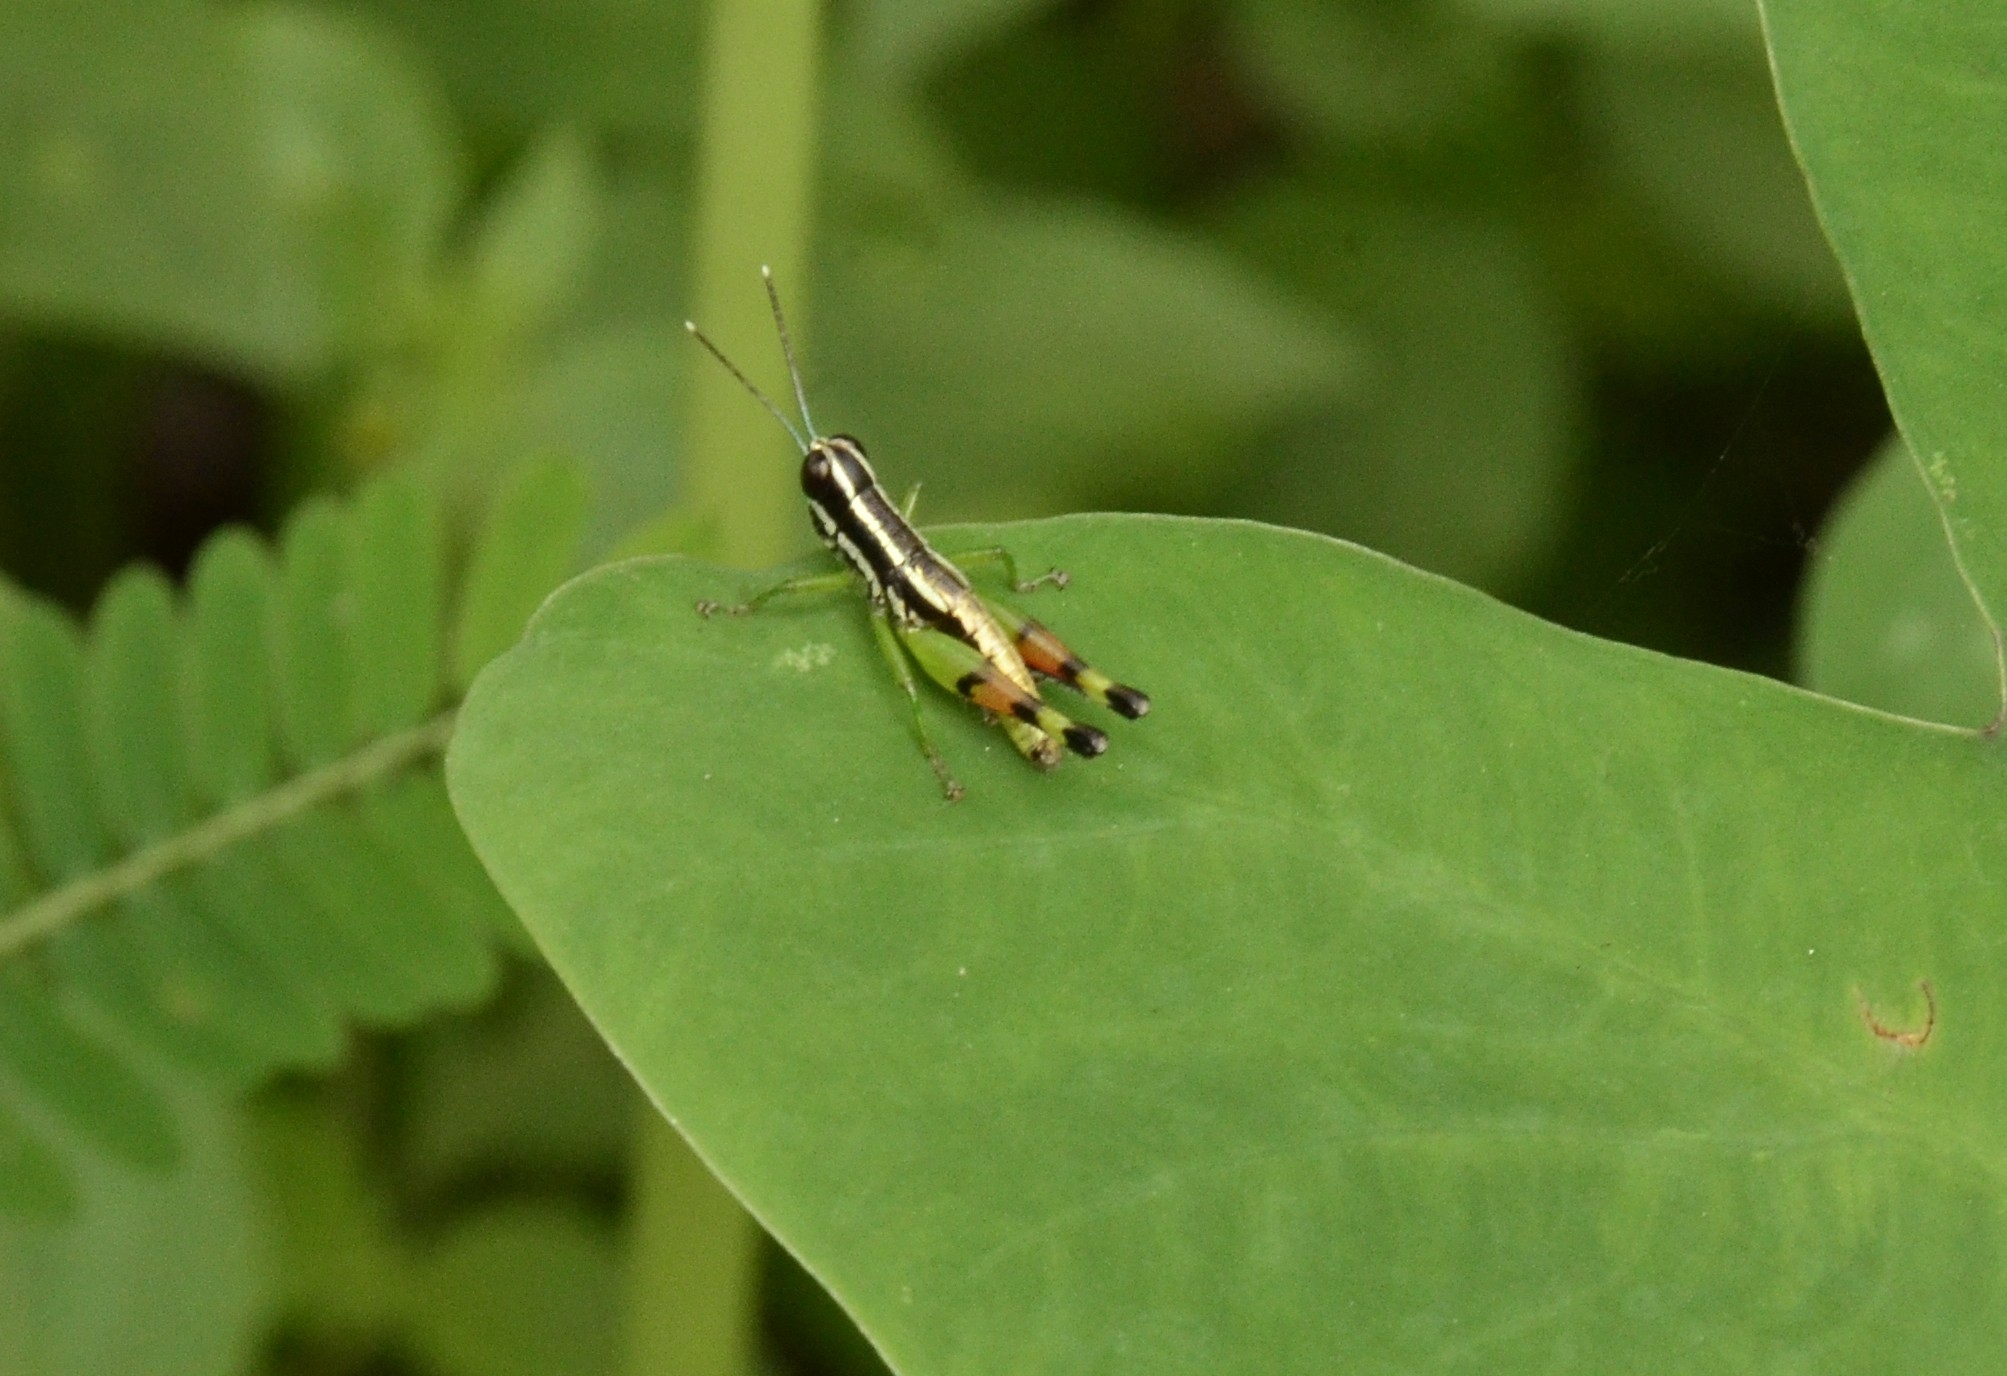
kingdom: Animalia
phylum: Arthropoda
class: Insecta
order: Orthoptera
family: Acrididae
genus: Chitaura
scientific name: Chitaura indica
